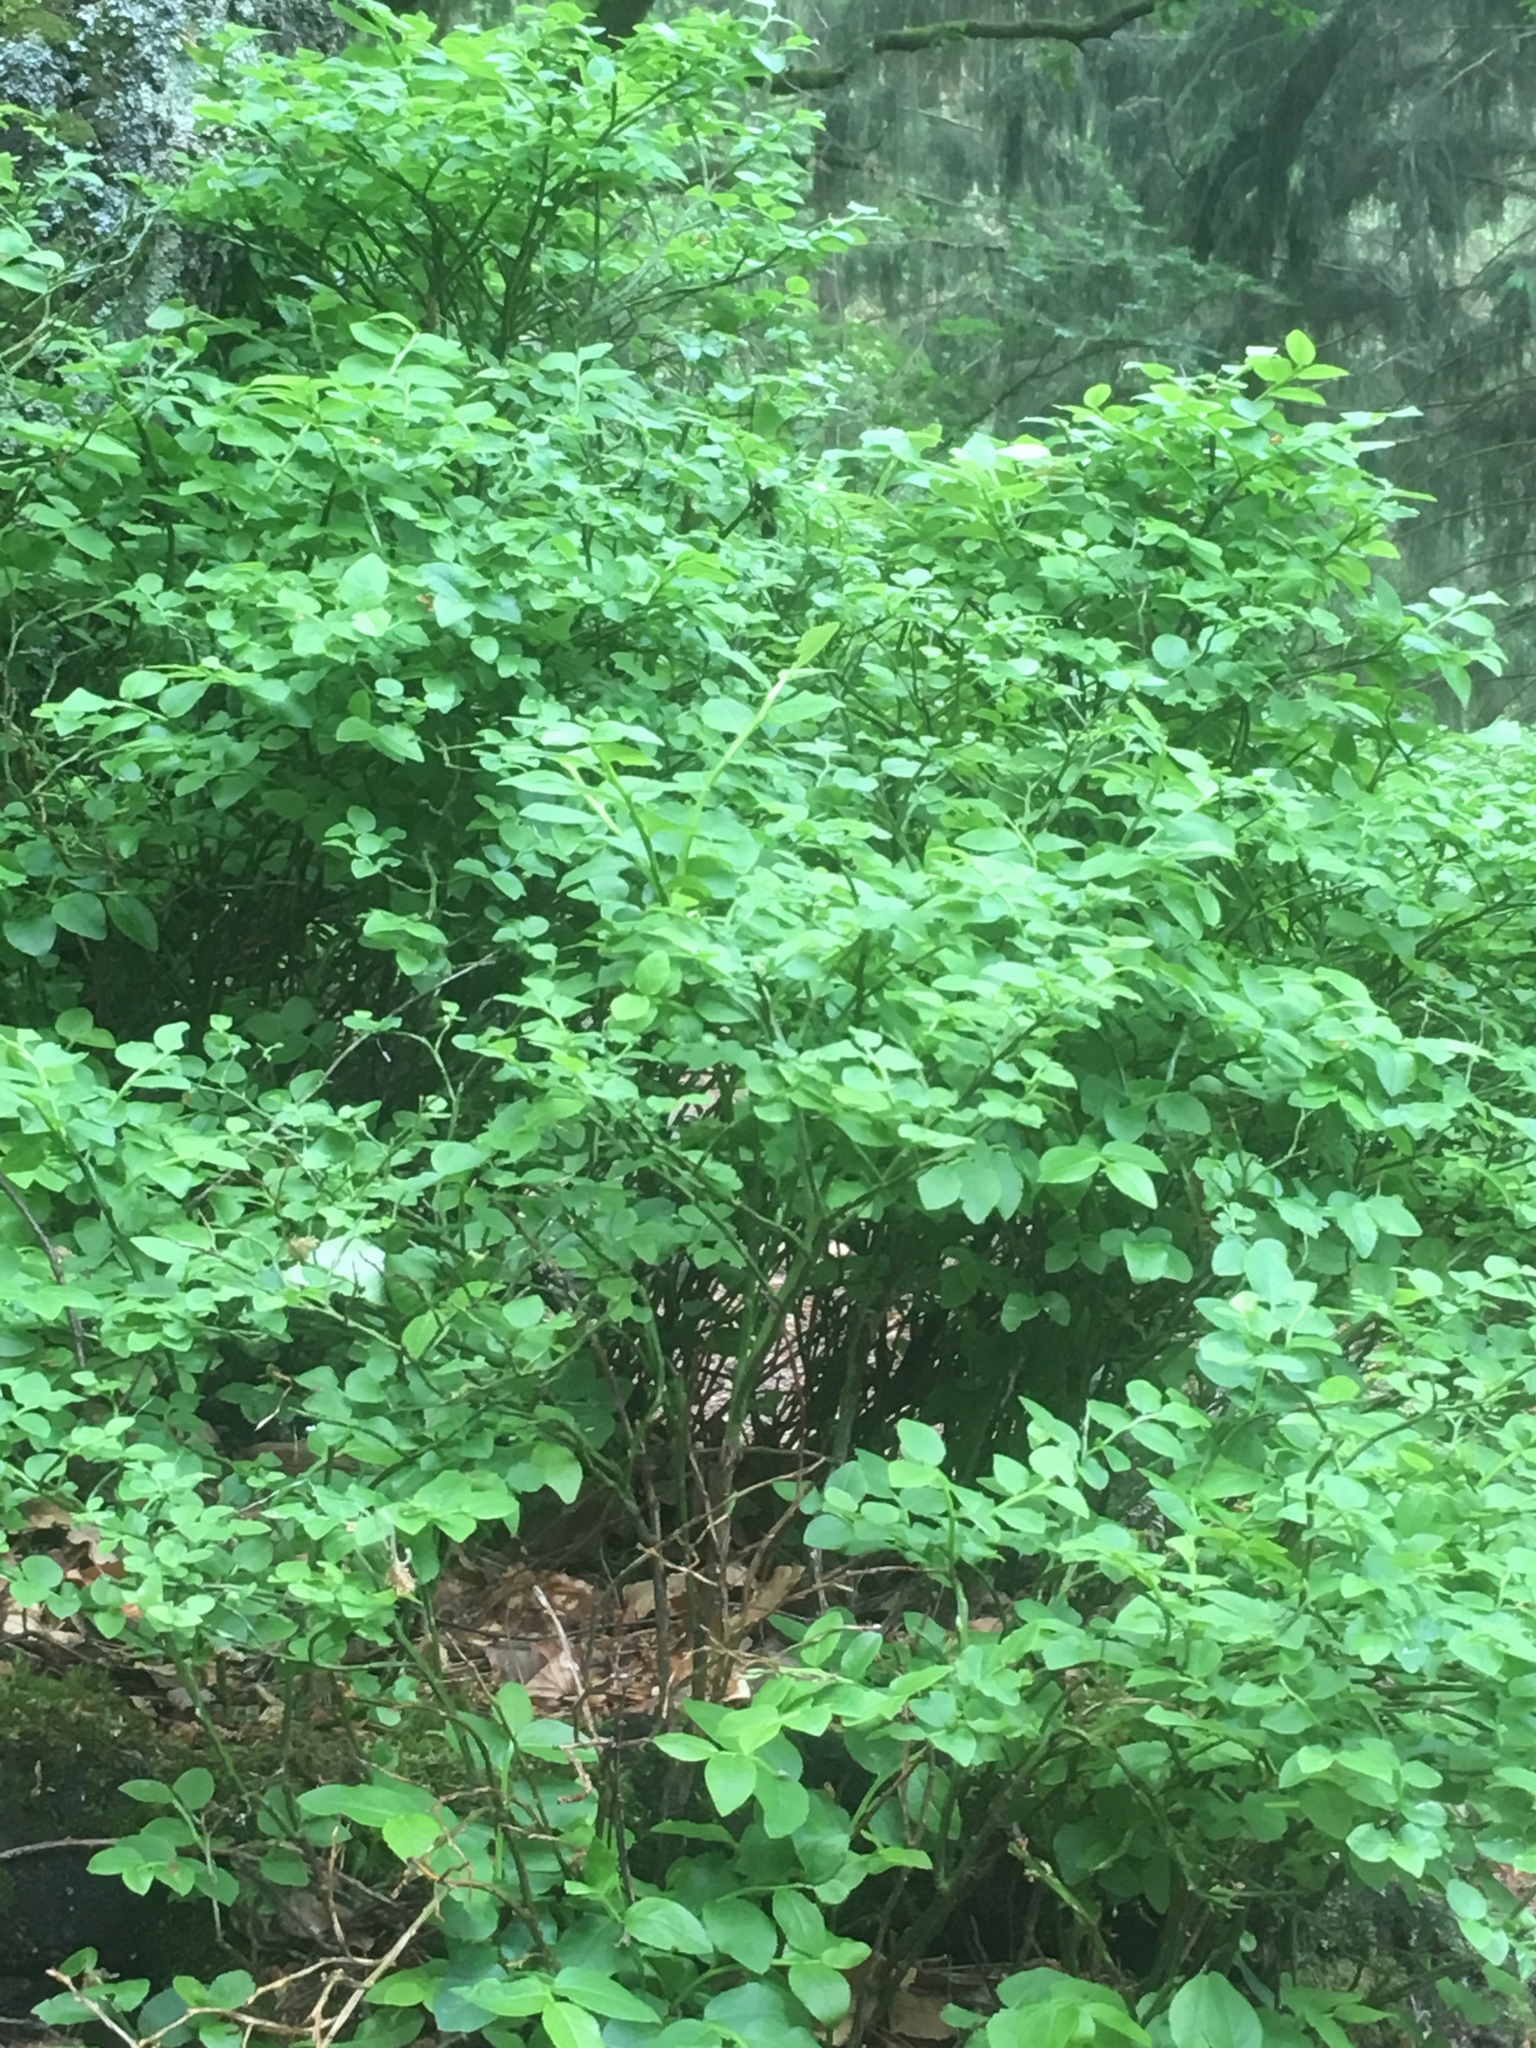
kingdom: Plantae
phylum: Tracheophyta
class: Magnoliopsida
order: Ericales
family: Ericaceae
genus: Vaccinium
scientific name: Vaccinium myrtillus
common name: Bilberry
